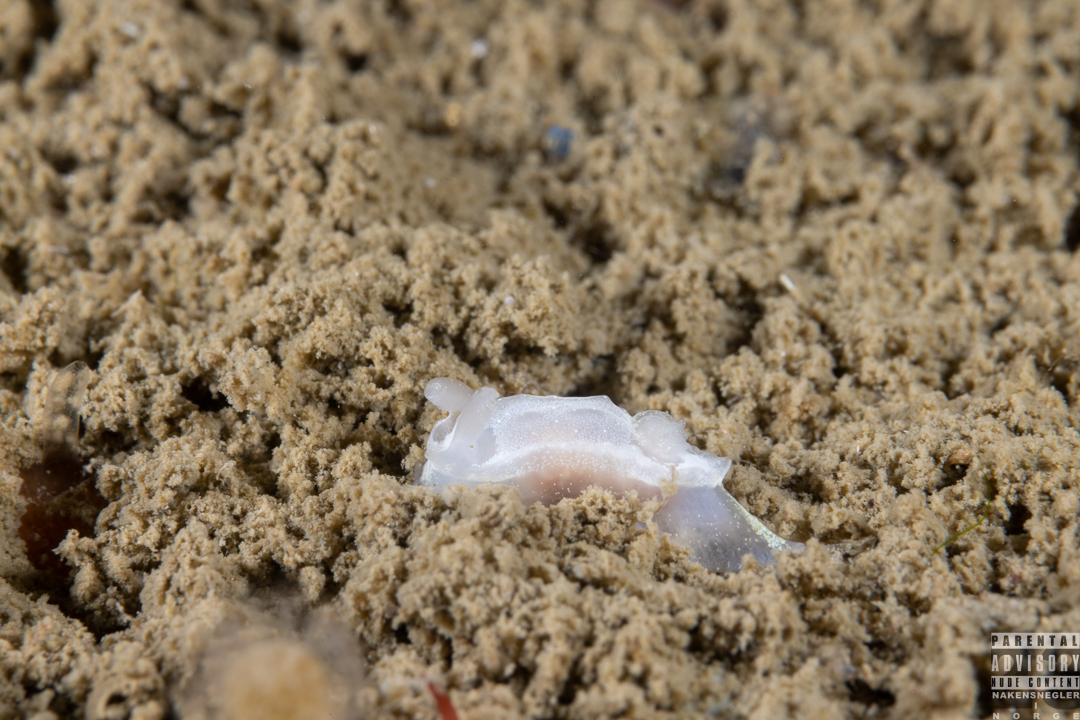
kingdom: Animalia
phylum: Mollusca
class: Gastropoda
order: Nudibranchia
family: Goniodorididae
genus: Okenia
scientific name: Okenia
